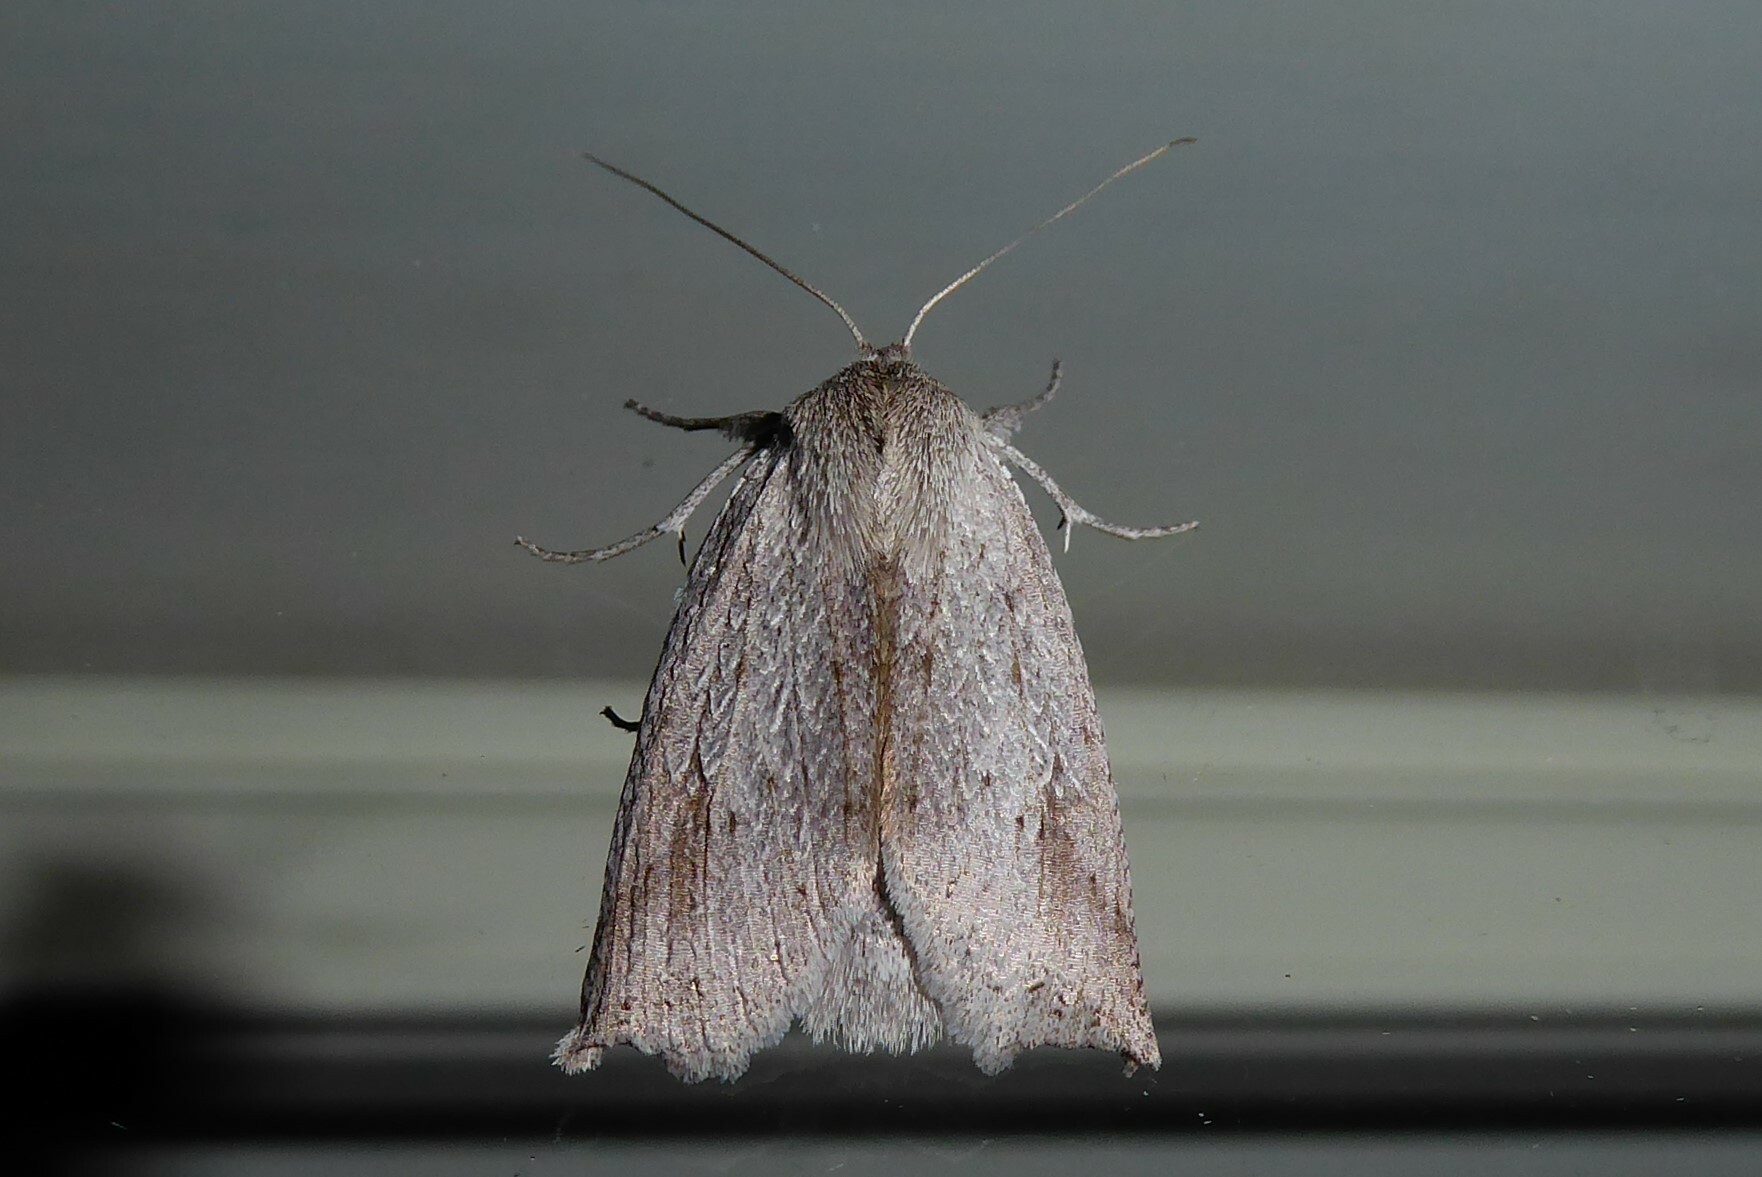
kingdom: Animalia
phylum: Arthropoda
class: Insecta
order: Lepidoptera
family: Geometridae
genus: Declana
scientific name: Declana leptomera
